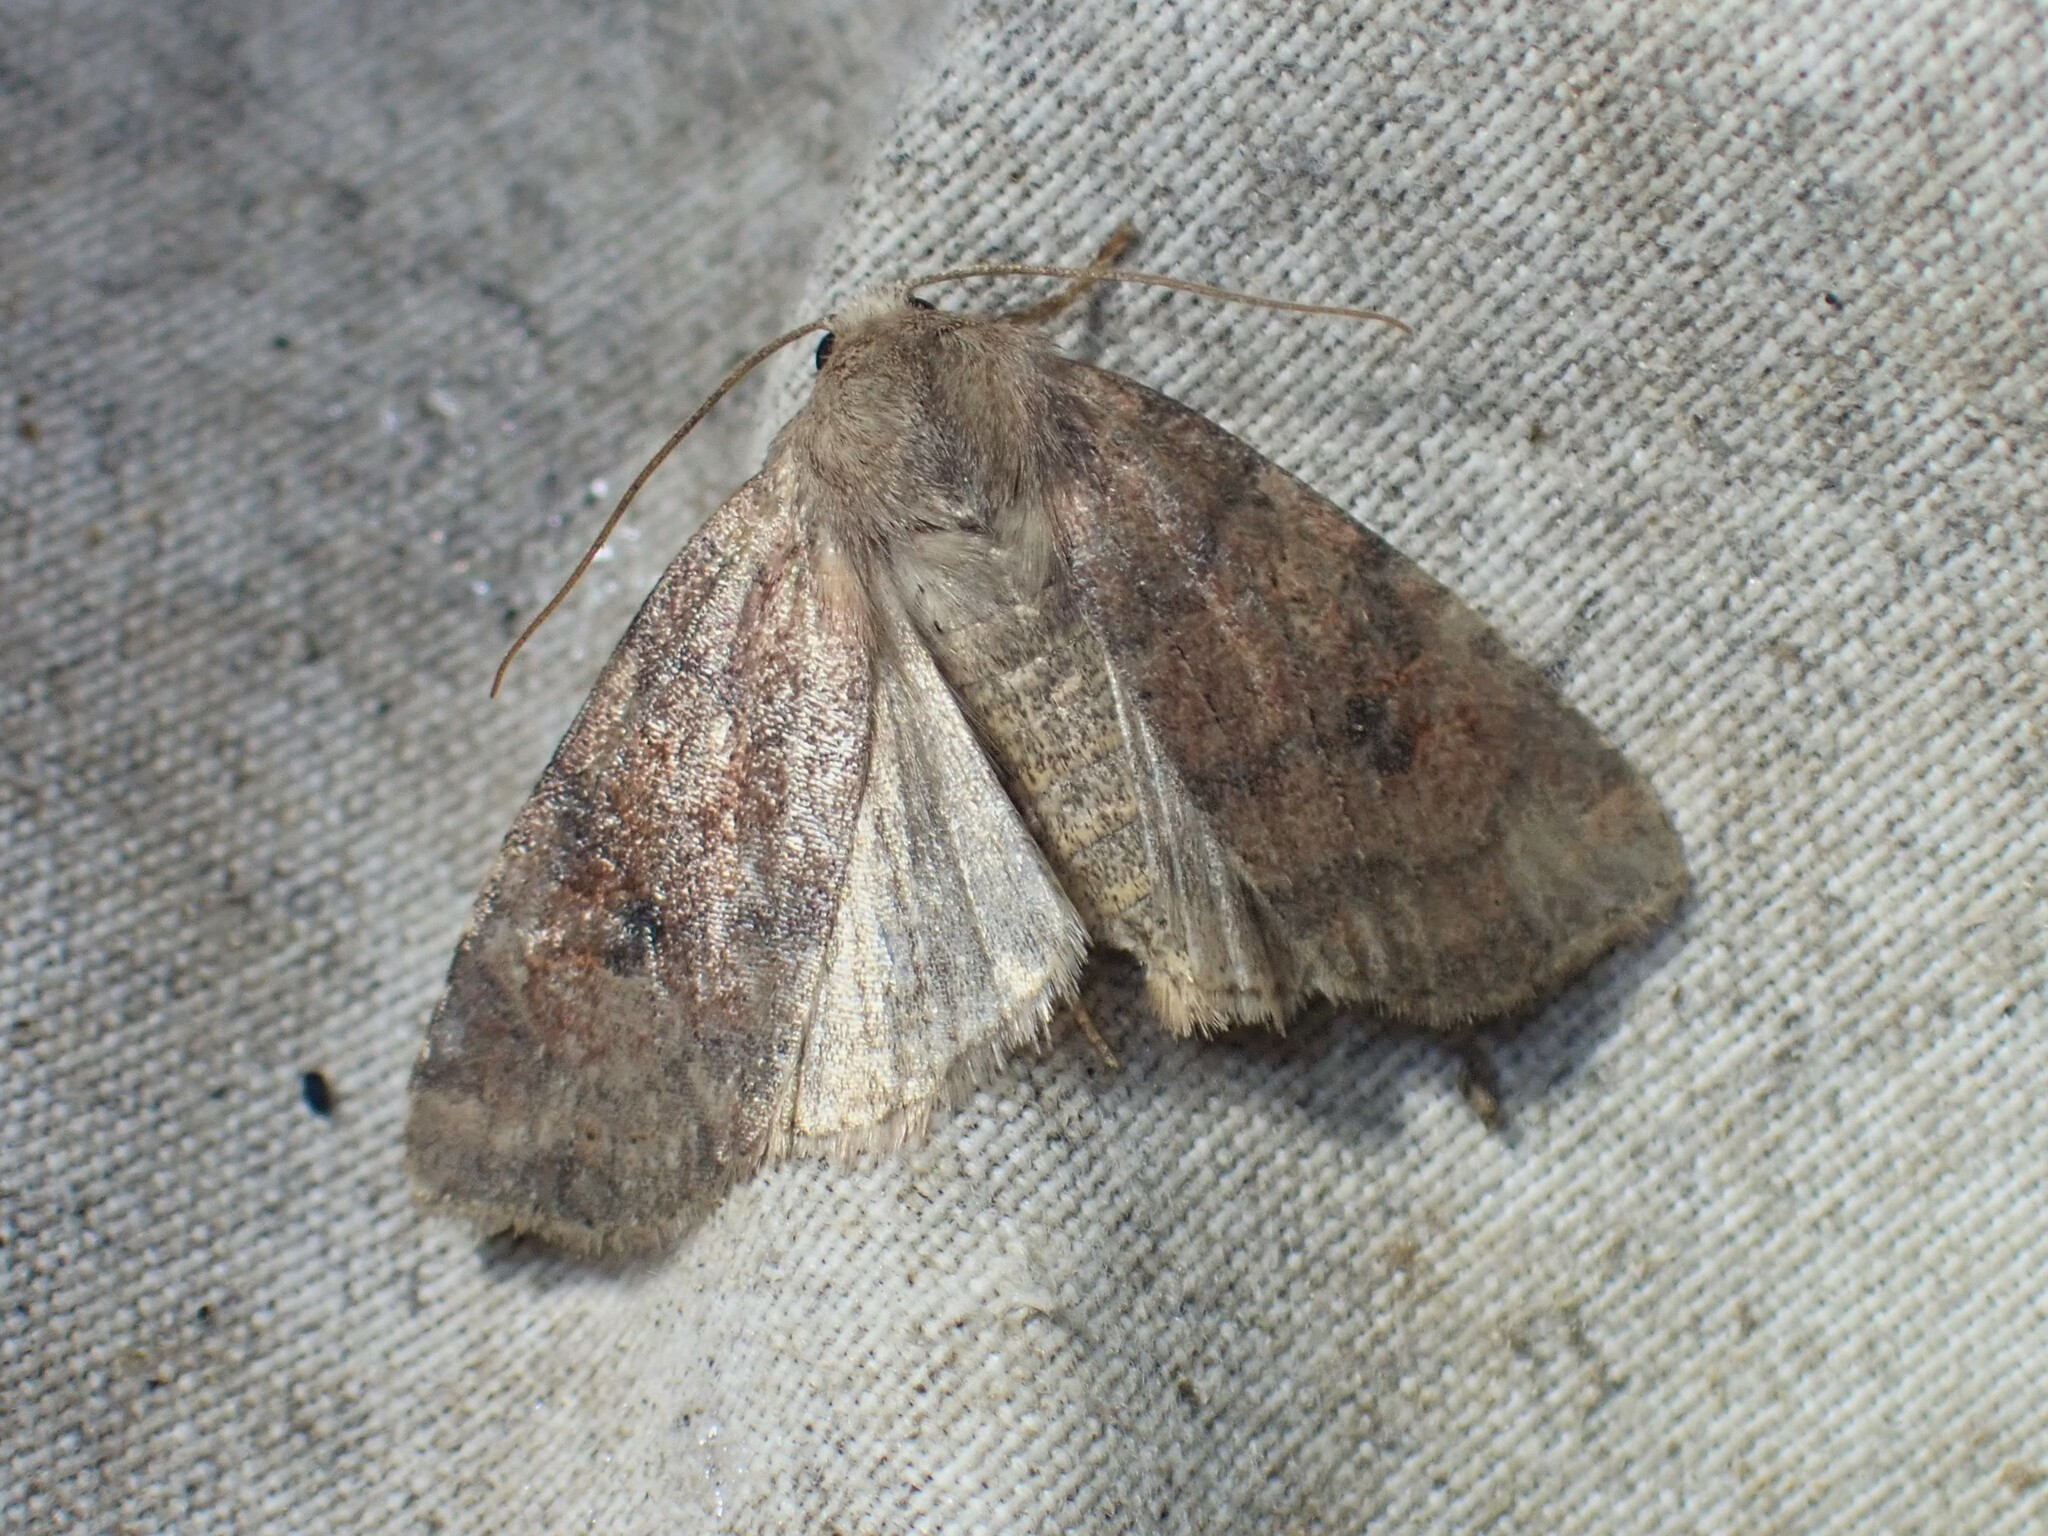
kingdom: Animalia
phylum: Arthropoda
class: Insecta
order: Lepidoptera
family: Noctuidae
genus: Anathix
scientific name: Anathix puta
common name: Puta sallow
